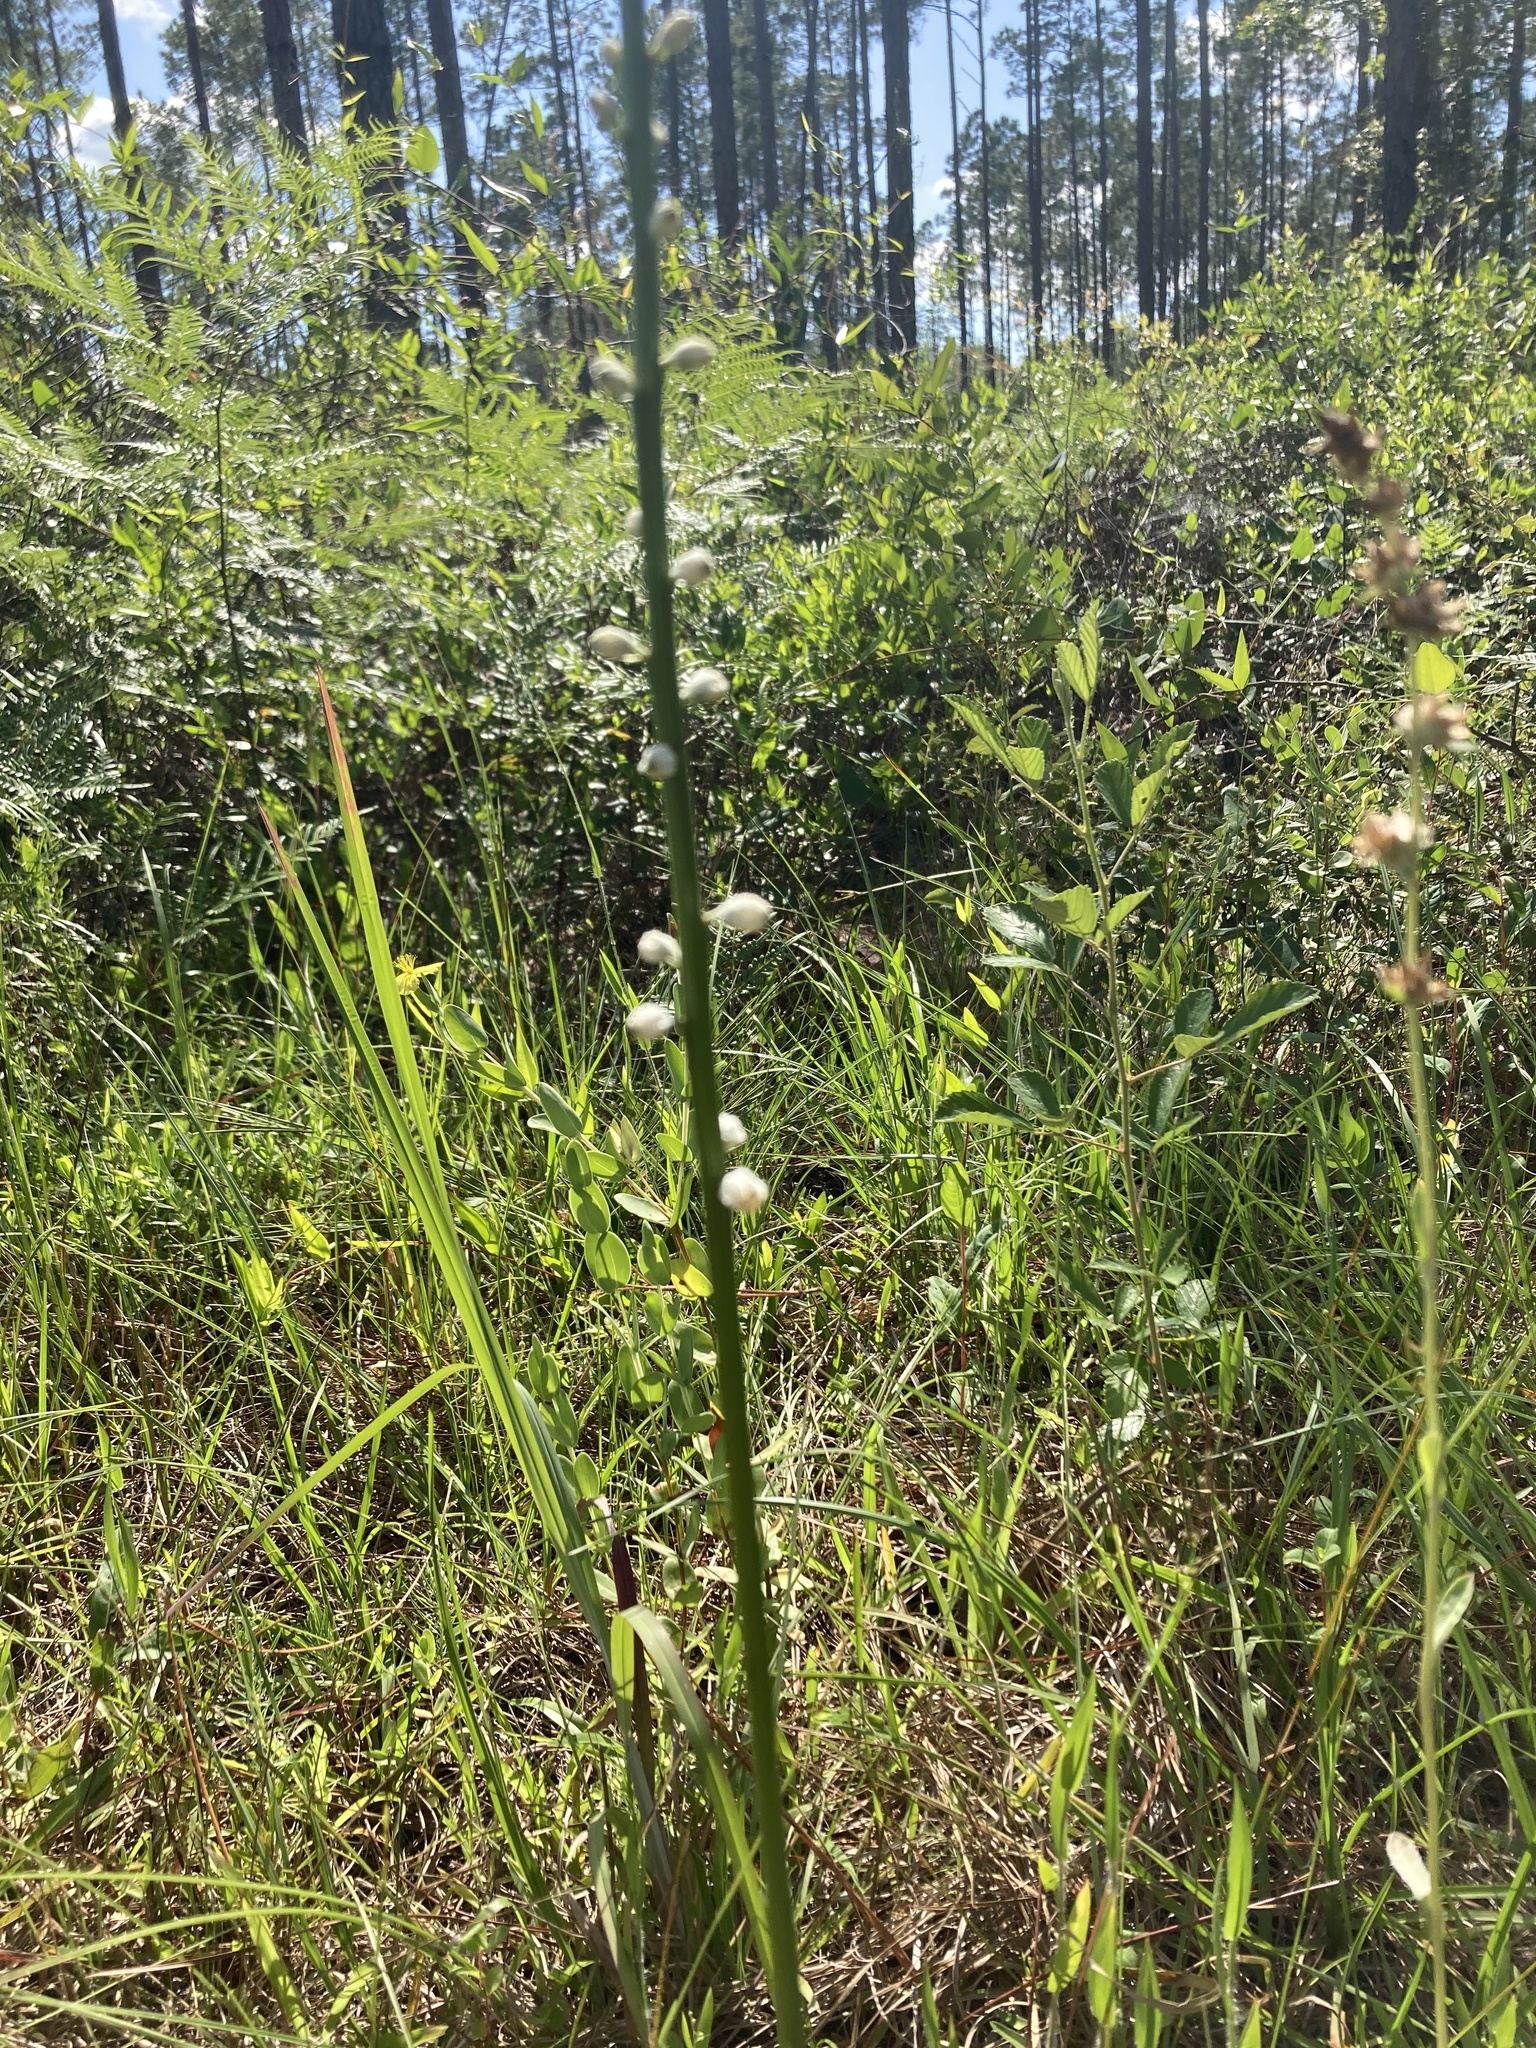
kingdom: Plantae
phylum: Tracheophyta
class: Liliopsida
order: Dioscoreales
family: Nartheciaceae
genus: Aletris
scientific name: Aletris obovata
